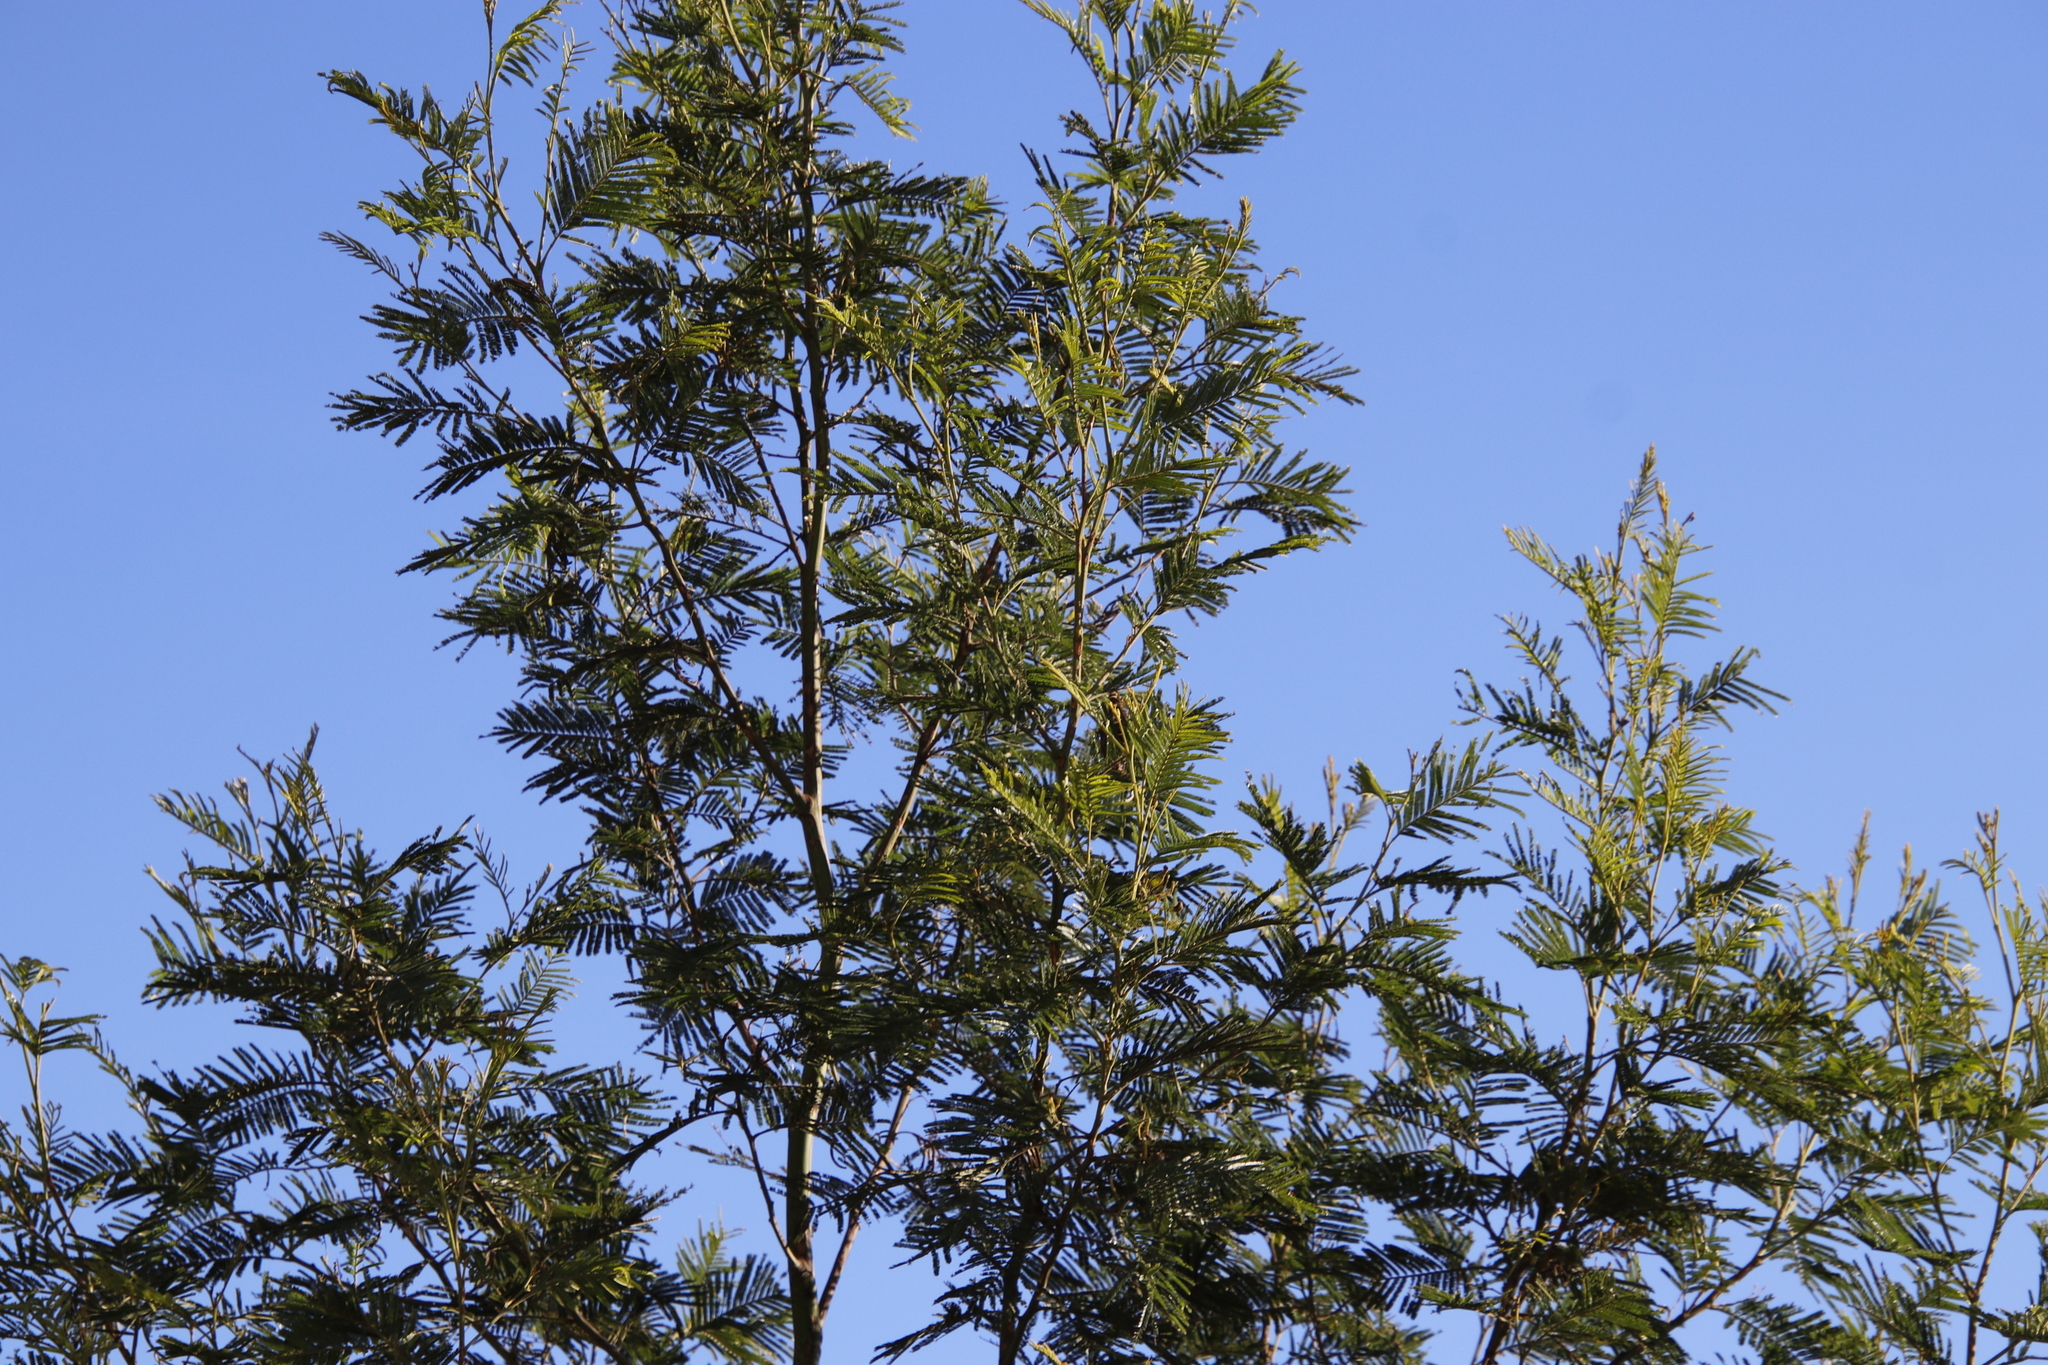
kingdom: Plantae
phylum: Tracheophyta
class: Magnoliopsida
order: Fabales
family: Fabaceae
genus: Acacia
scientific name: Acacia mearnsii
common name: Black wattle
